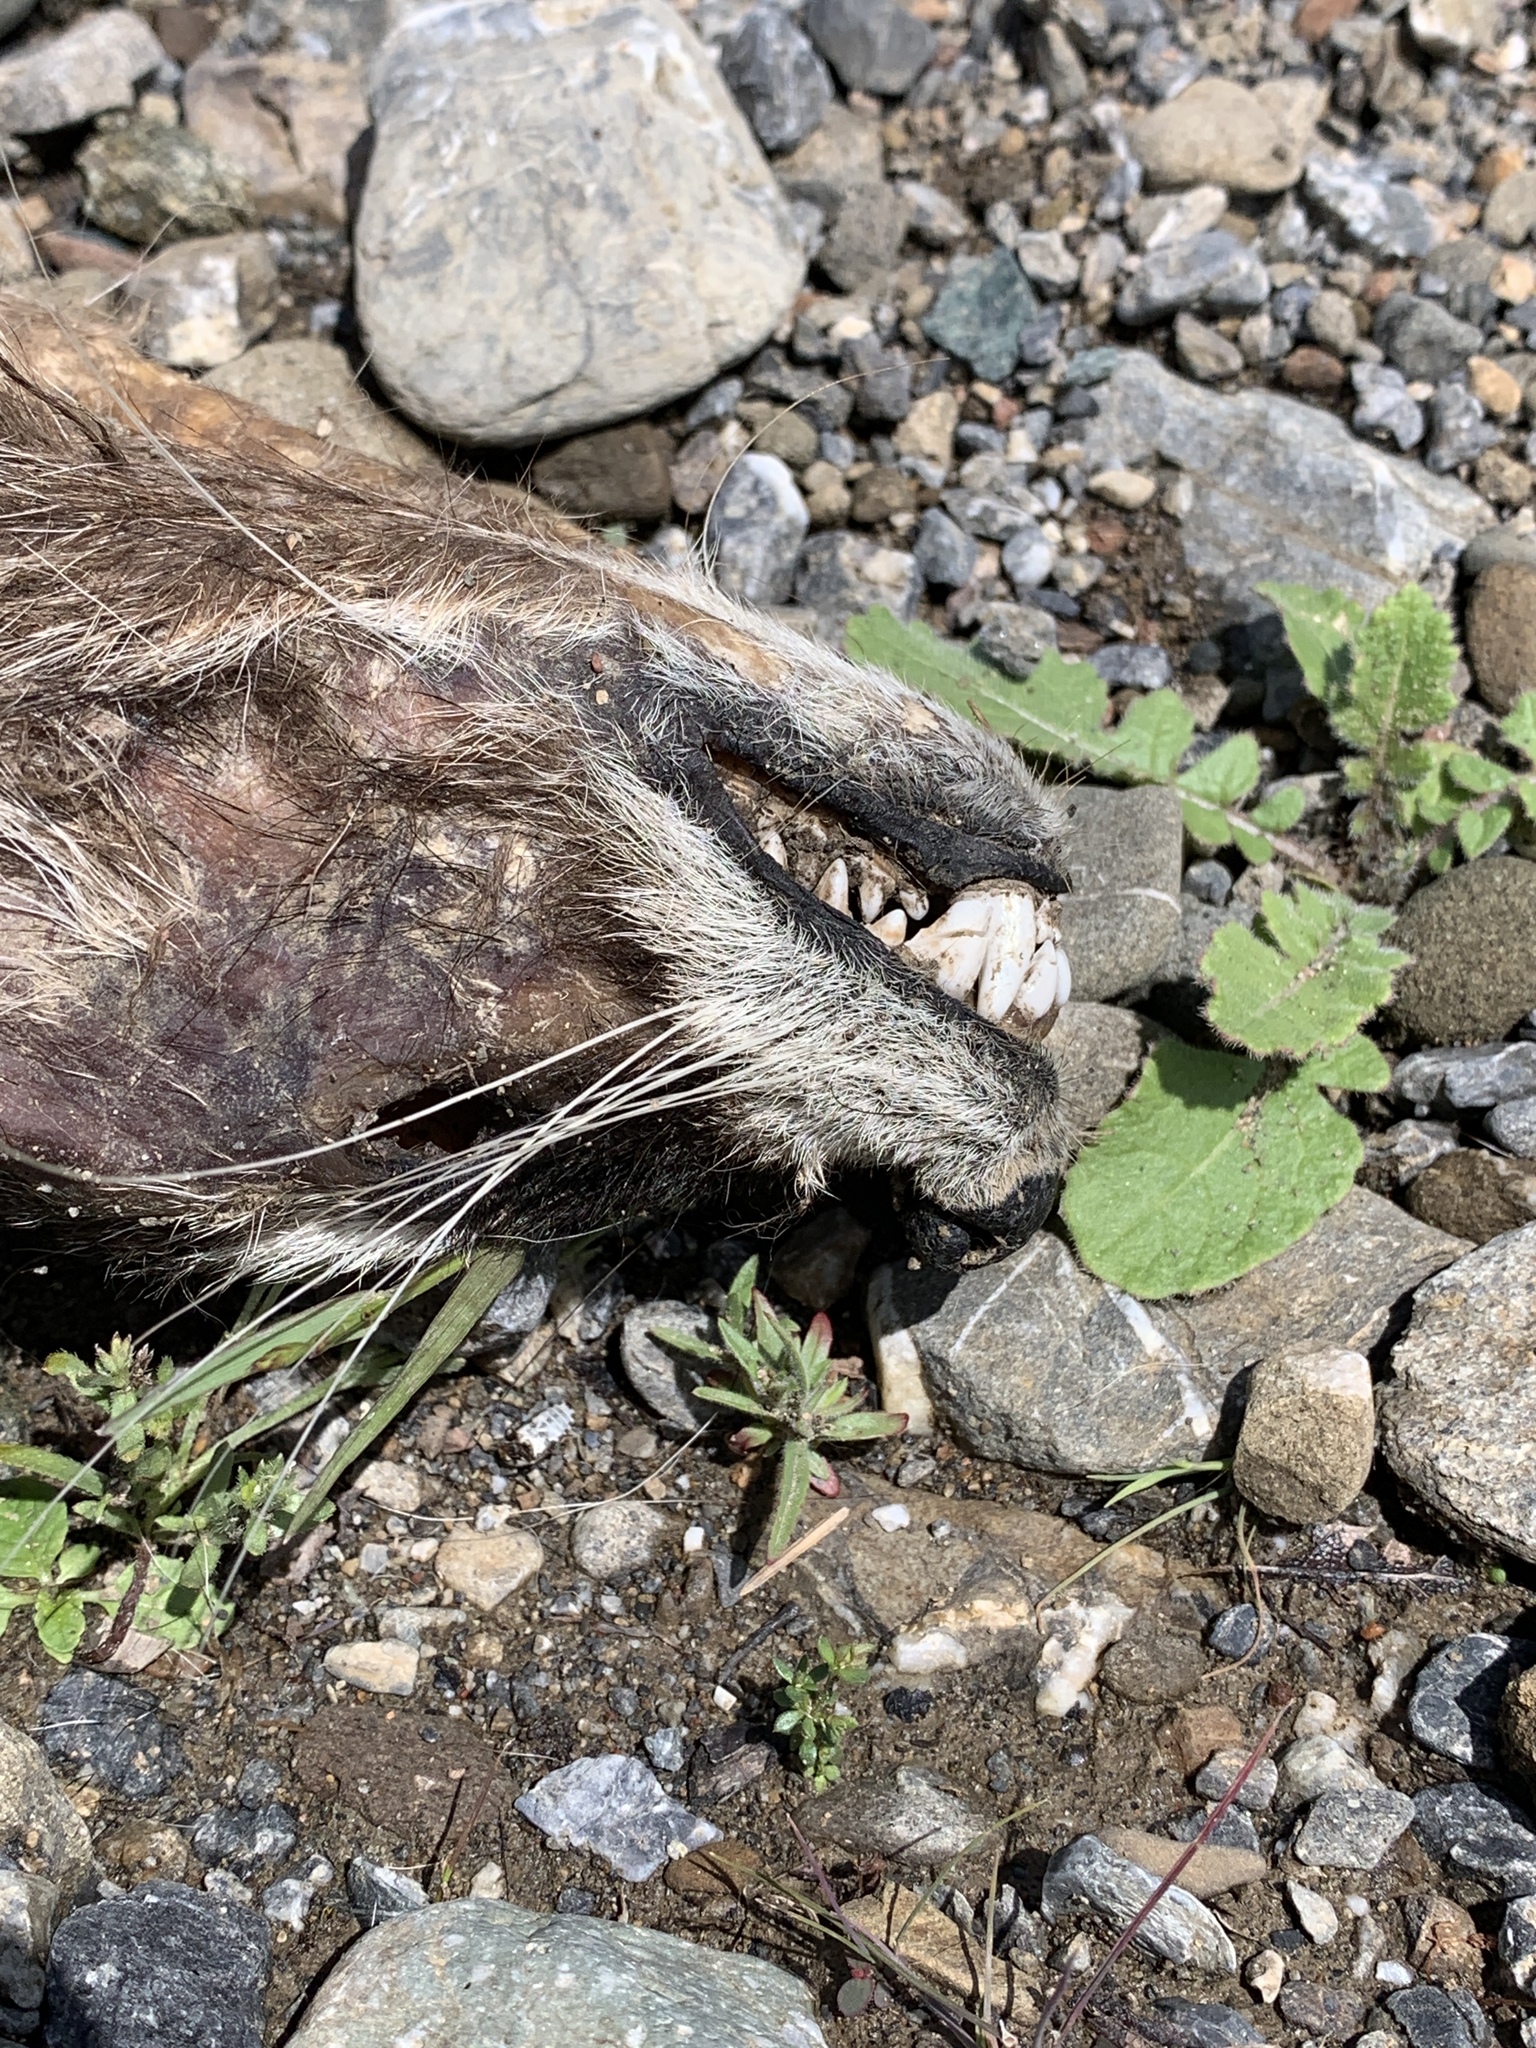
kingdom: Animalia
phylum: Chordata
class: Mammalia
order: Carnivora
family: Procyonidae
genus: Procyon
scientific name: Procyon lotor
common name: Raccoon
